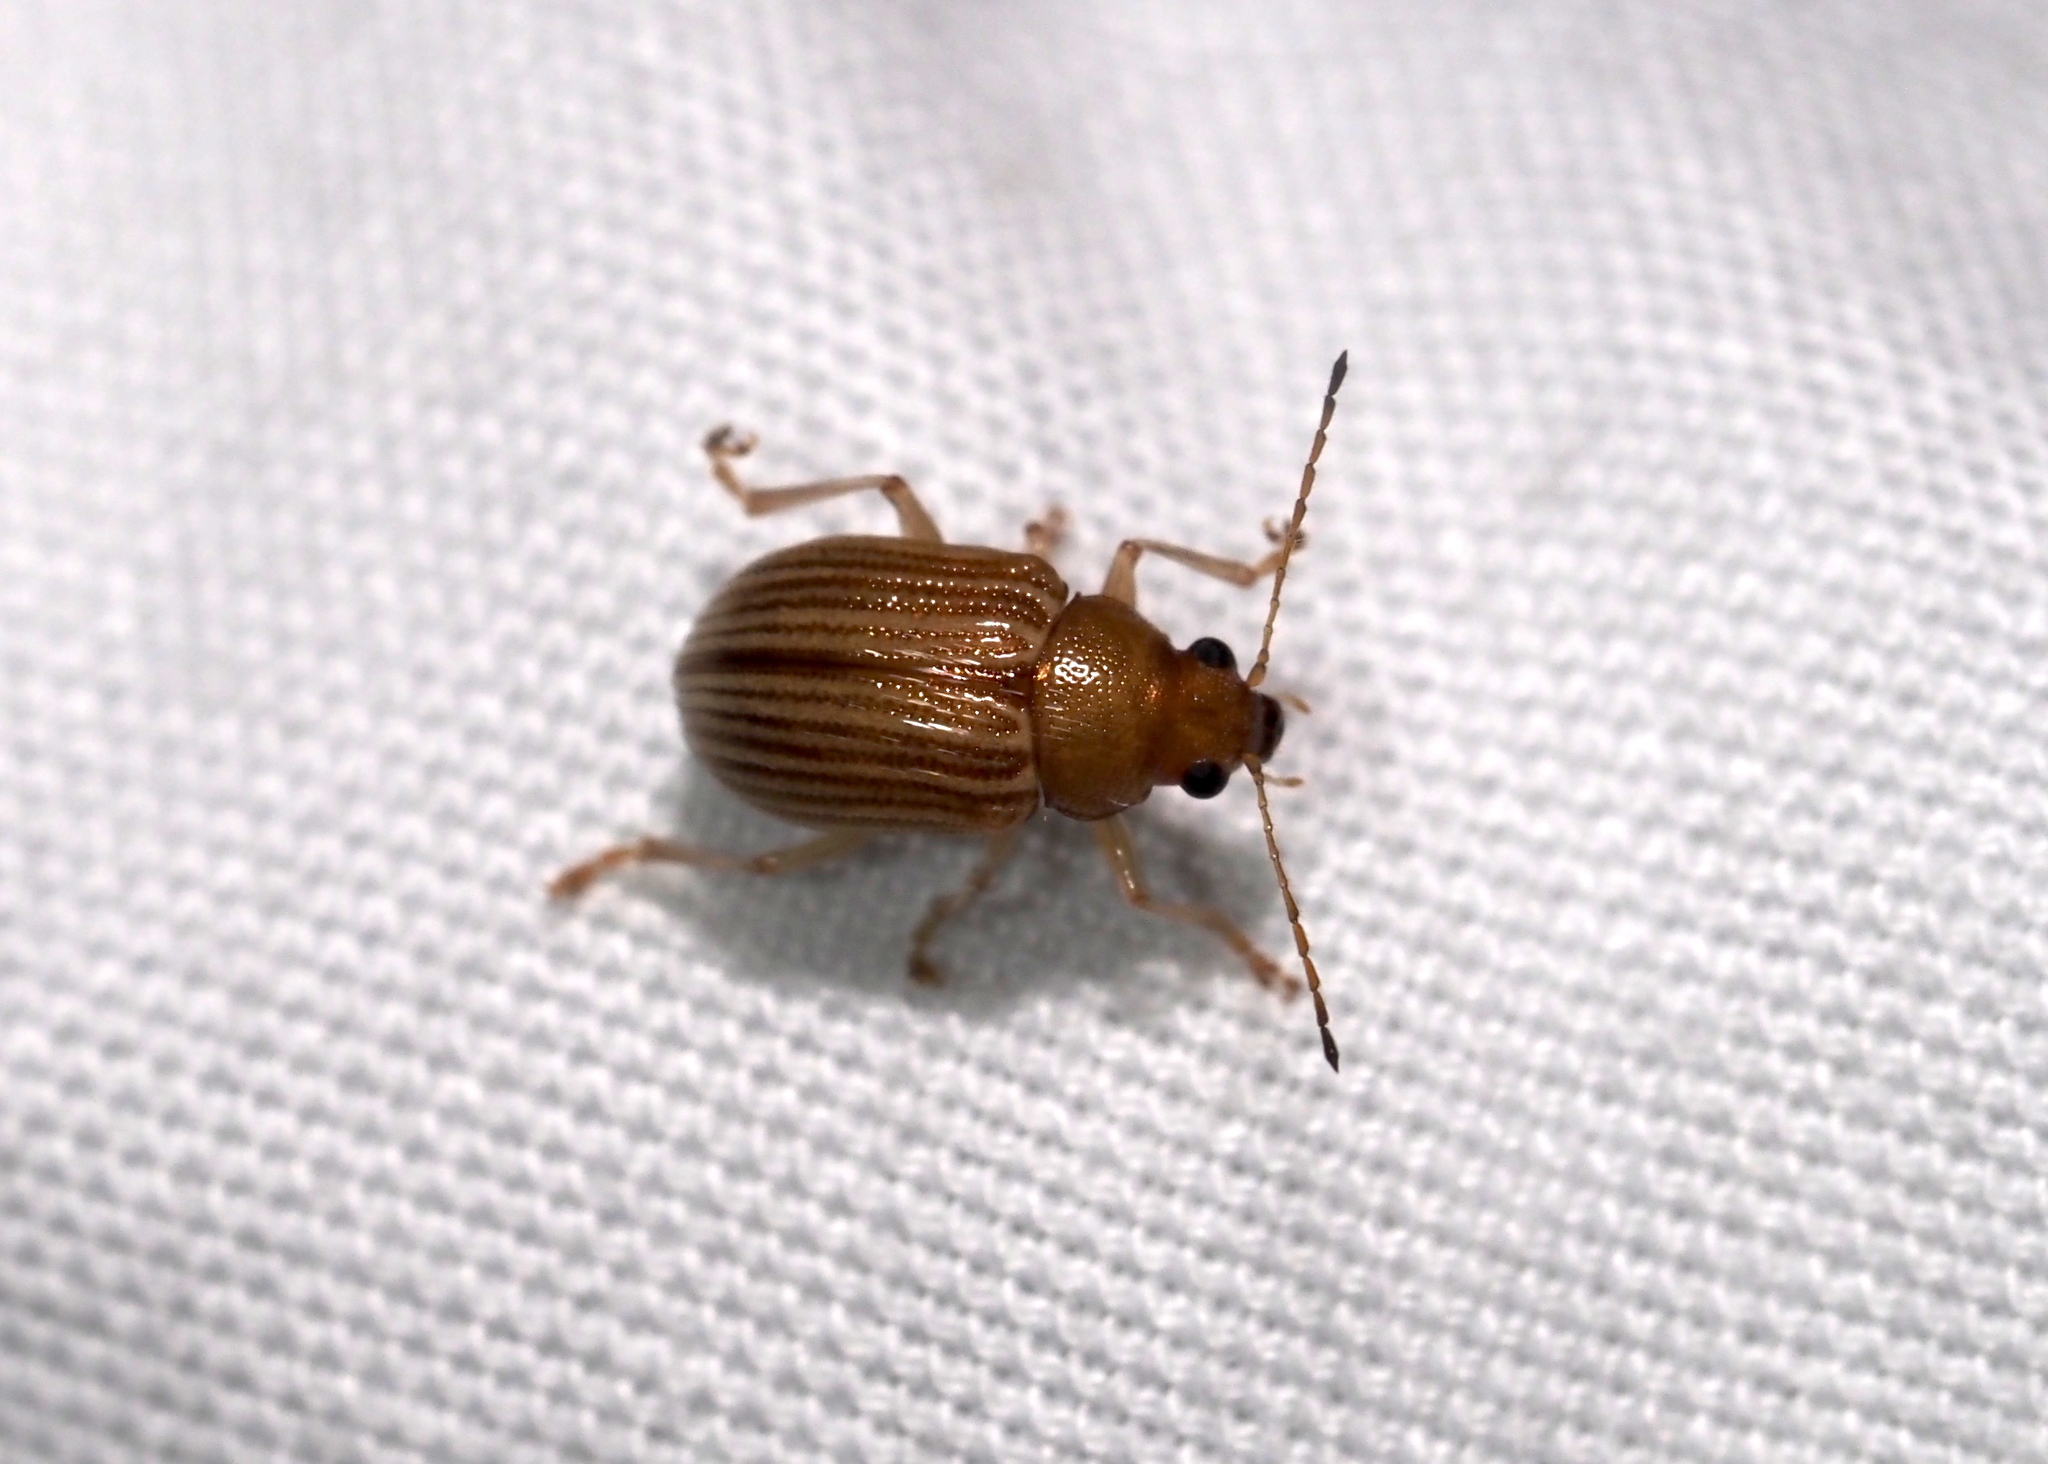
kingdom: Animalia
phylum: Arthropoda
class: Insecta
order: Coleoptera
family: Chrysomelidae
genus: Colaspis
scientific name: Colaspis brunnea
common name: Grape colaspis
